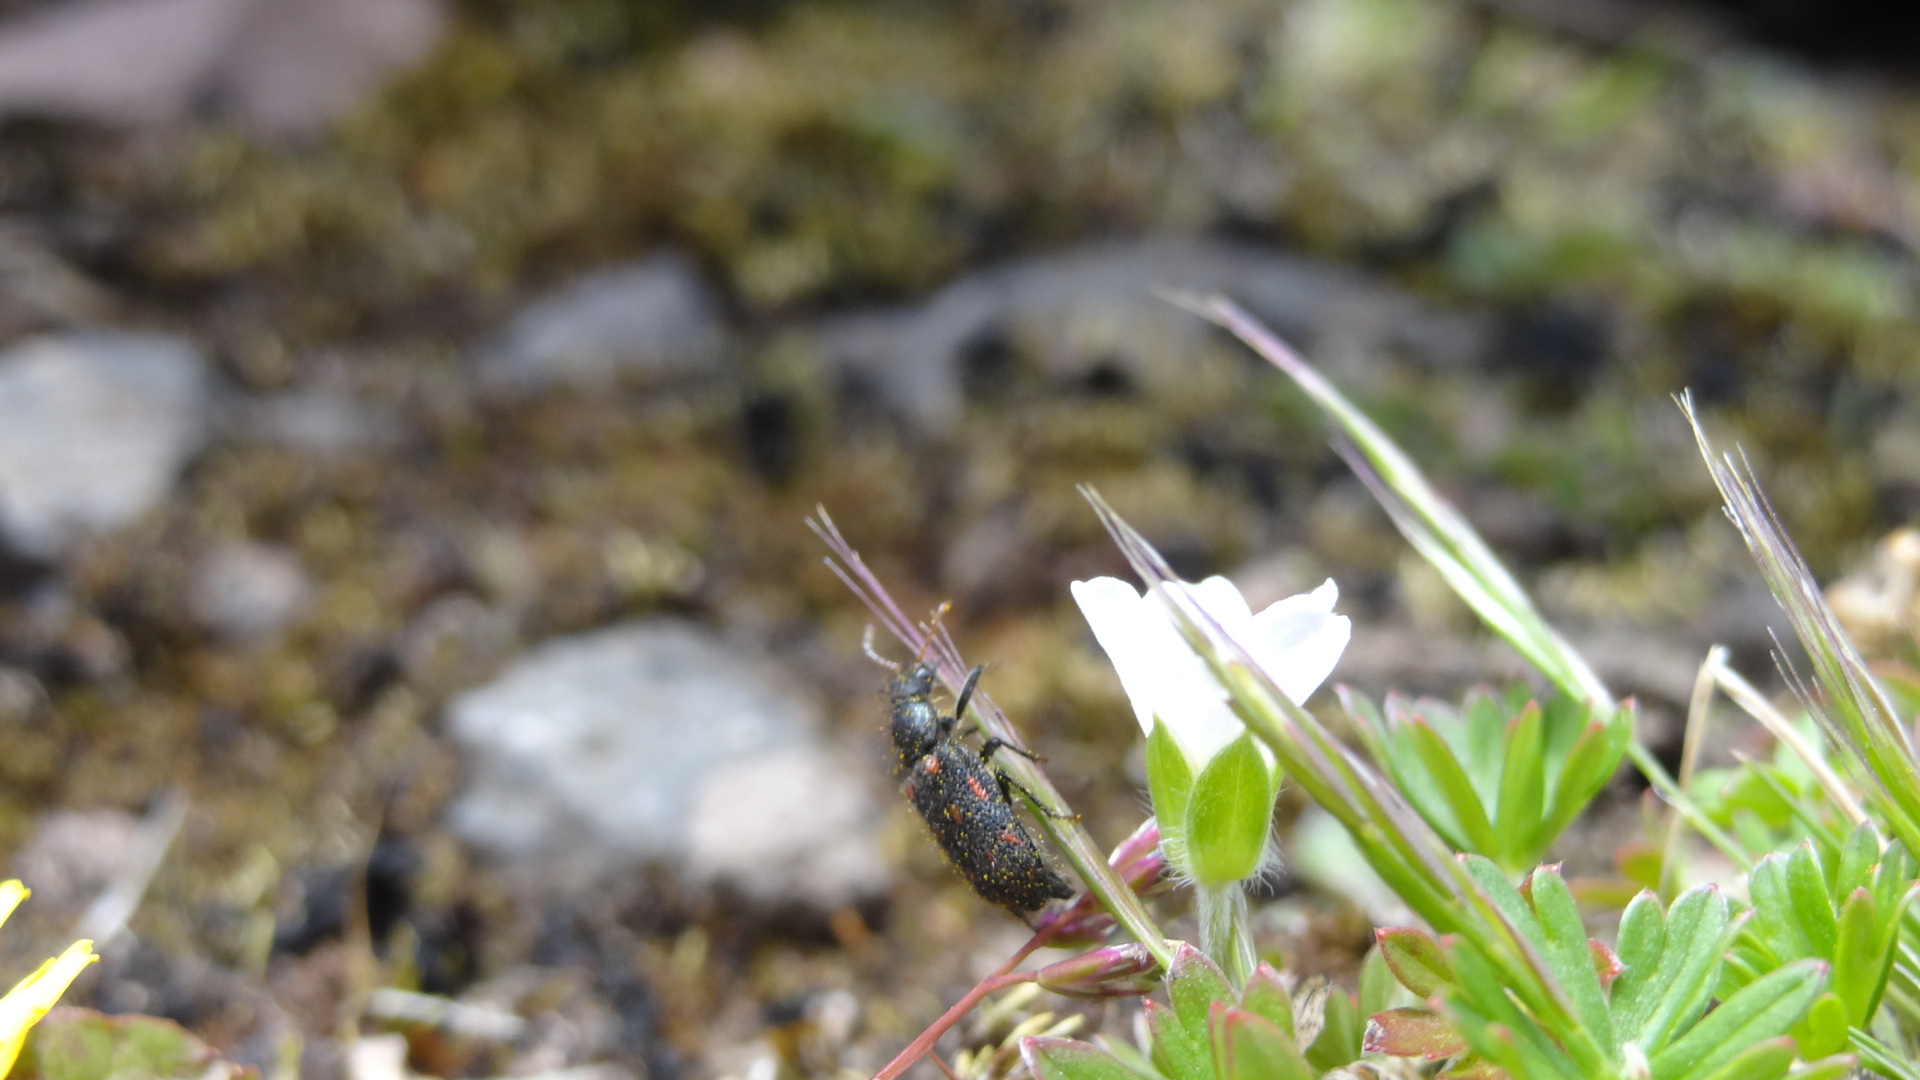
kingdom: Animalia
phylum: Arthropoda
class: Insecta
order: Coleoptera
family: Melyridae
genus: Astylus
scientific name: Astylus
